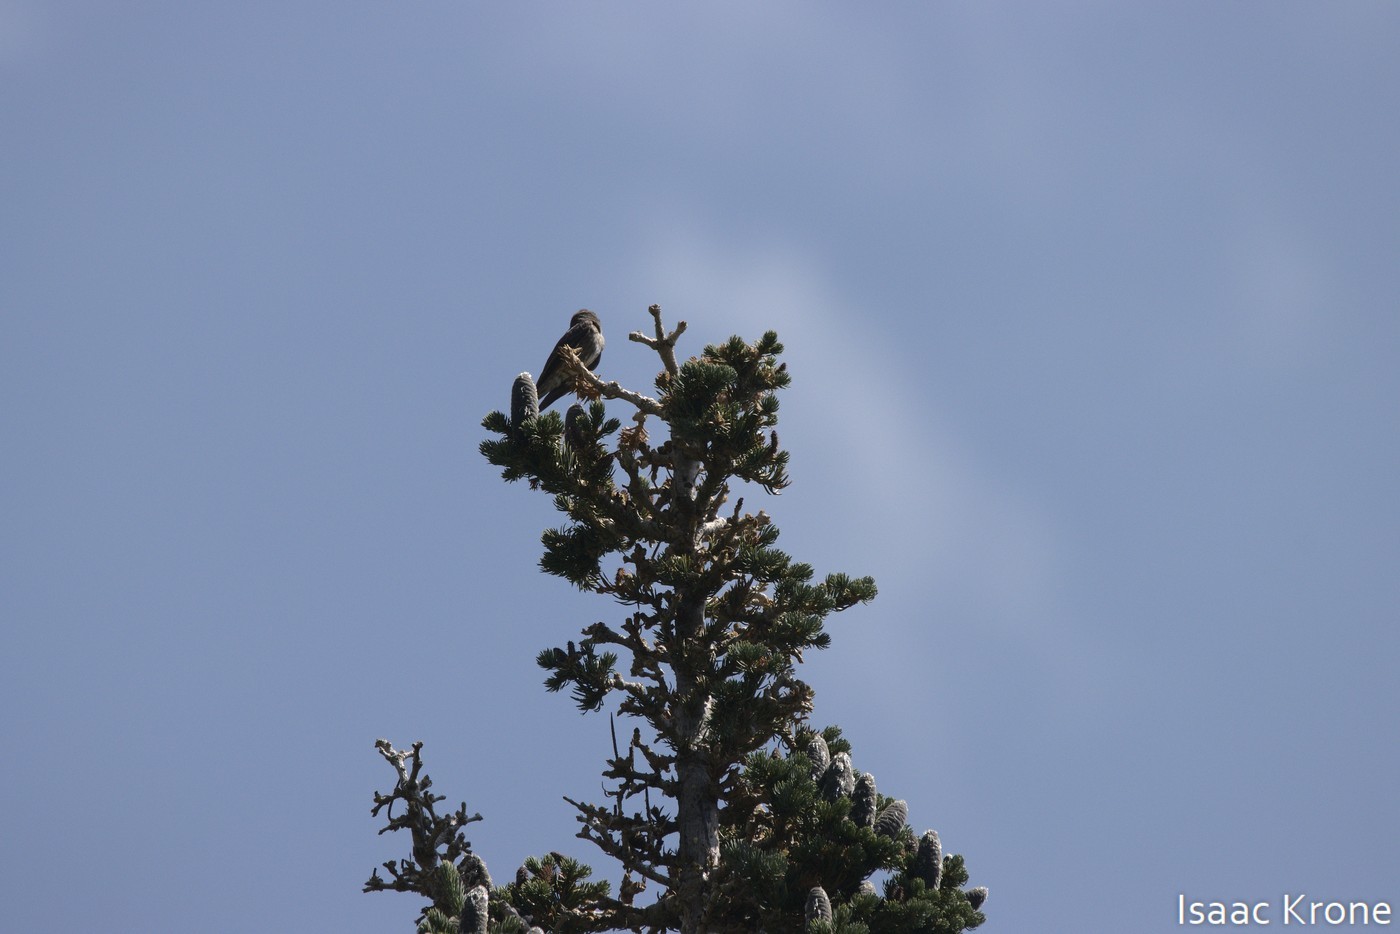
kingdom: Animalia
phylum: Chordata
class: Aves
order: Passeriformes
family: Tyrannidae
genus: Contopus
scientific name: Contopus cooperi
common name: Olive-sided flycatcher
